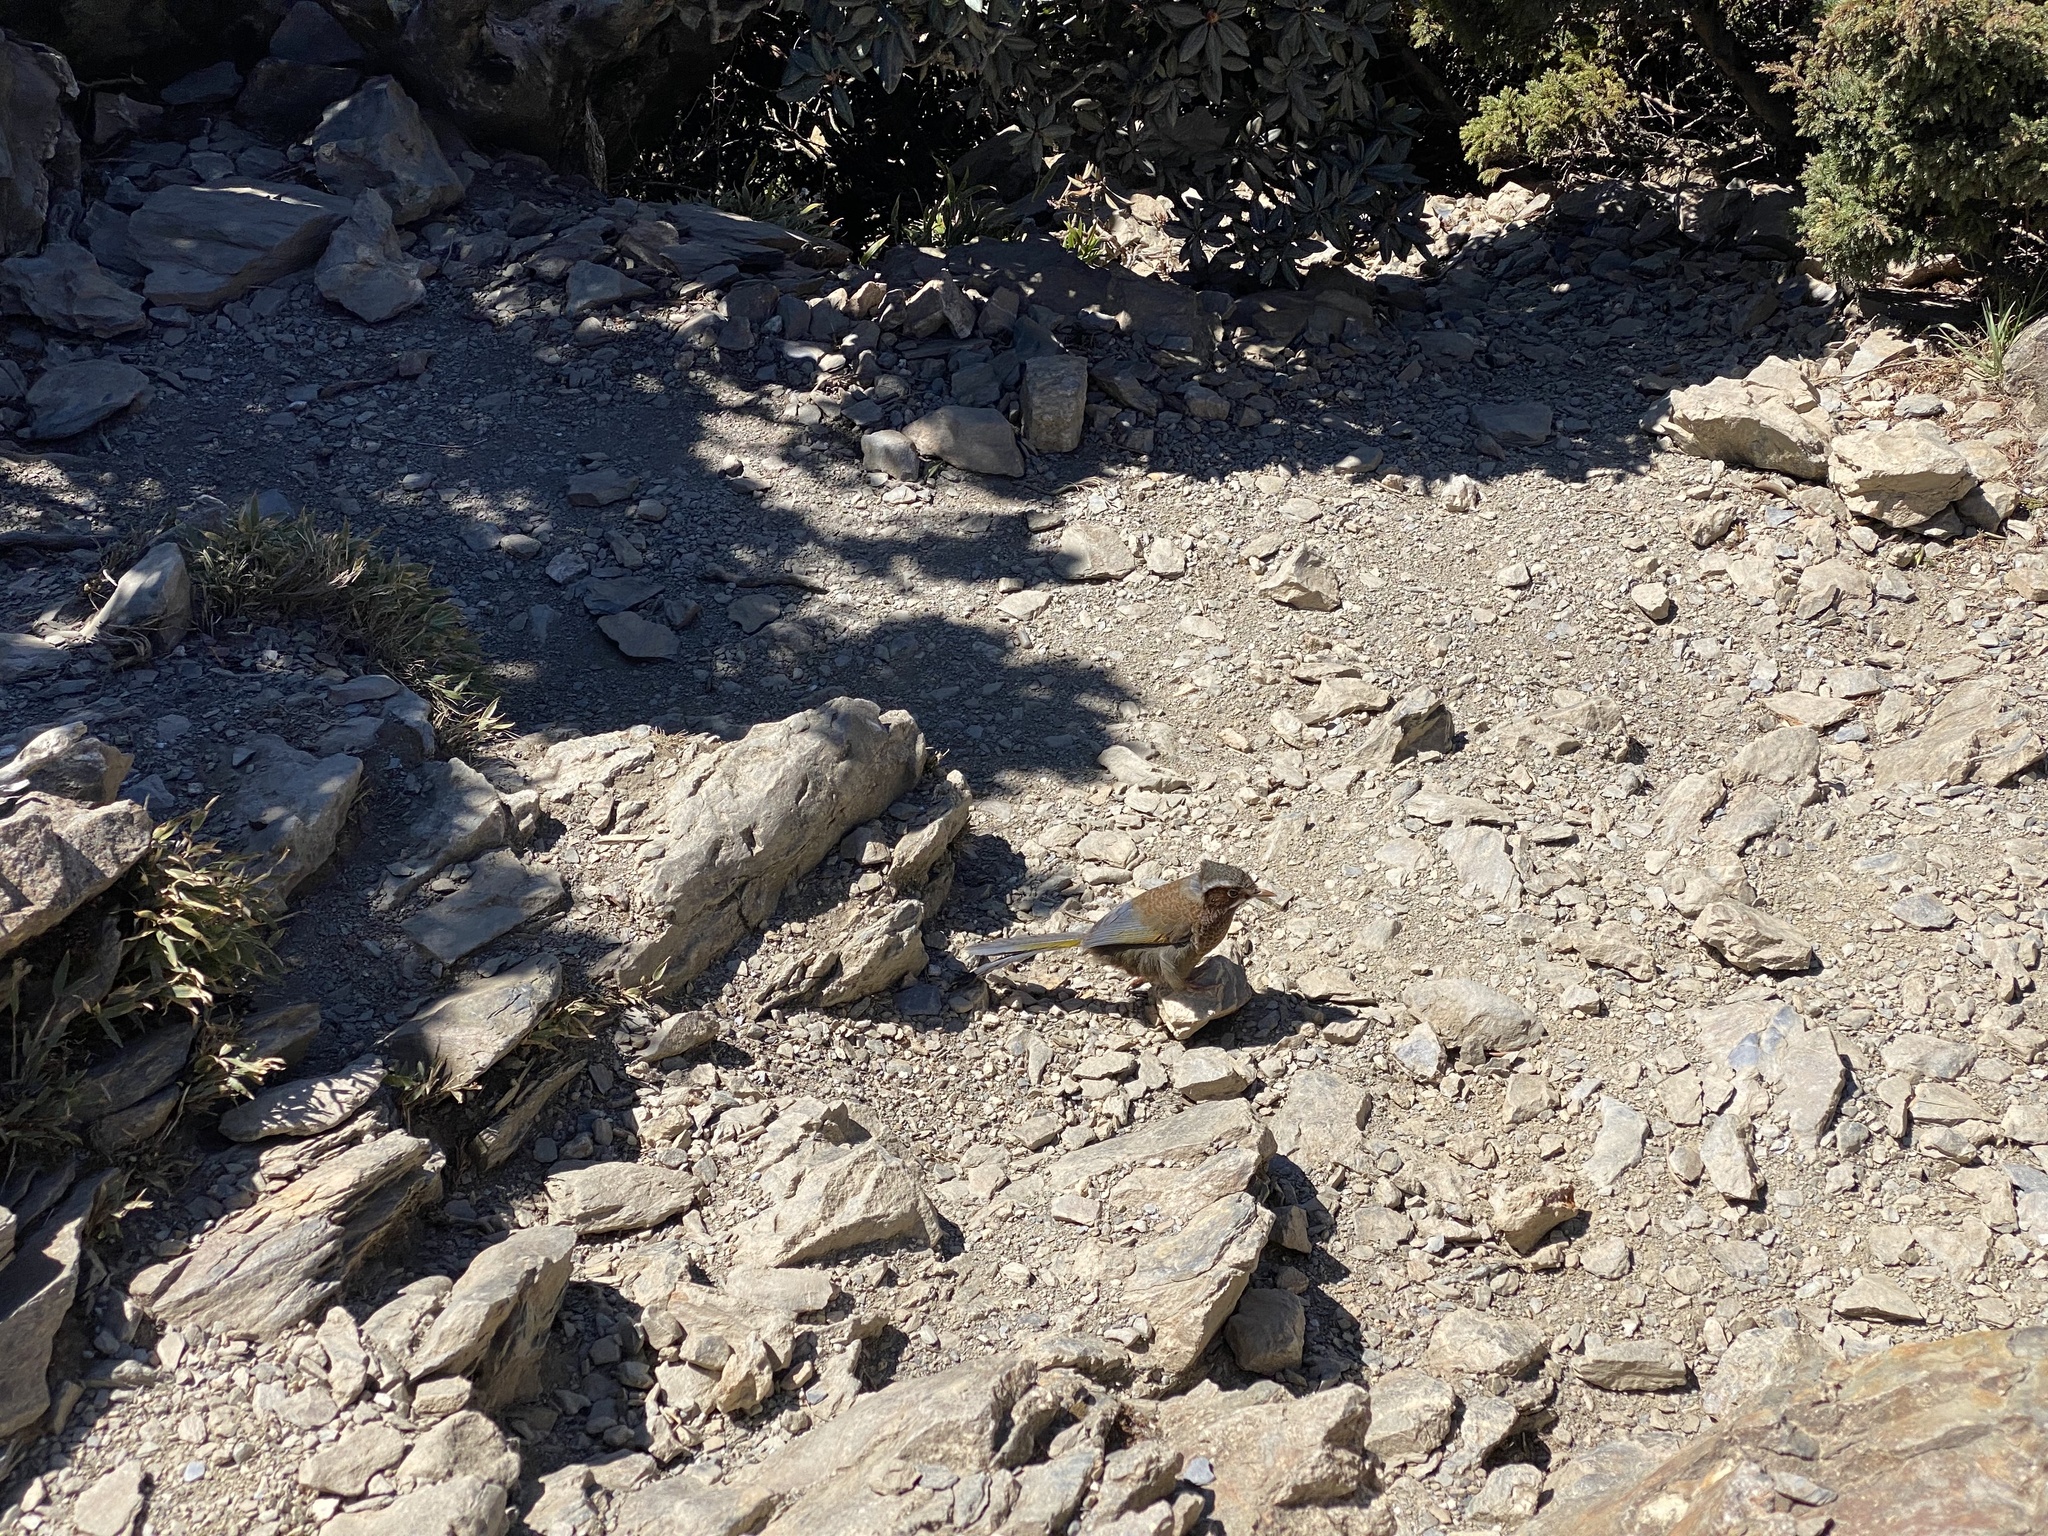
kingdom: Animalia
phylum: Chordata
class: Aves
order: Passeriformes
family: Leiothrichidae
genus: Trochalopteron
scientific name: Trochalopteron morrisonianum
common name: White-whiskered laughingthrush
